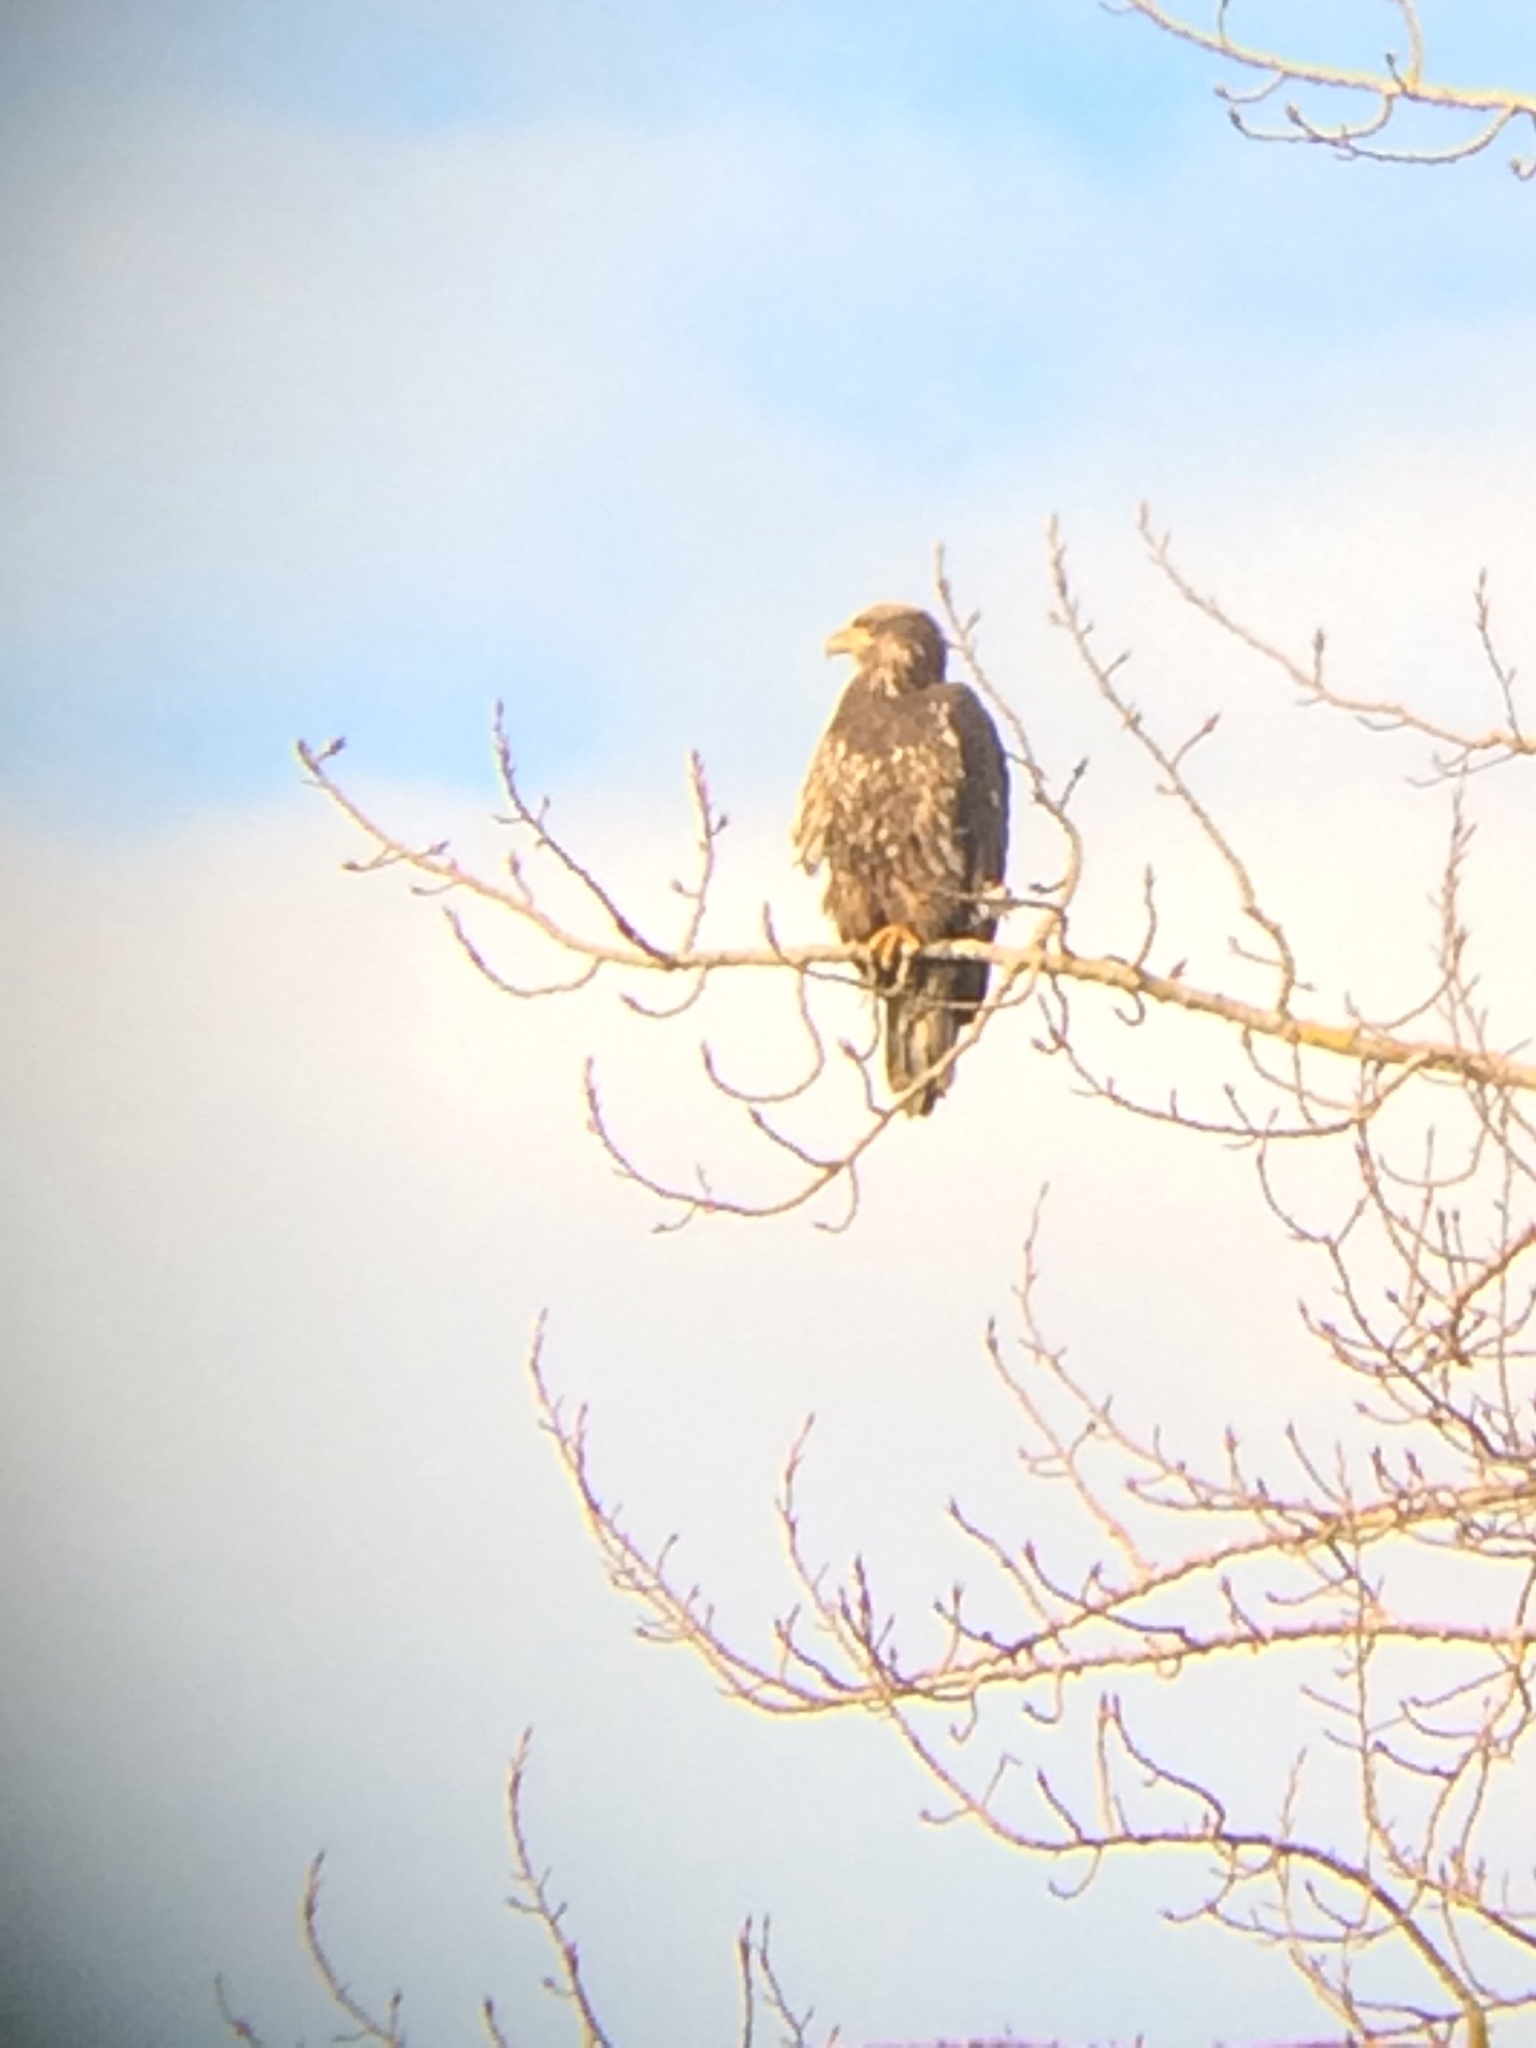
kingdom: Animalia
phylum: Chordata
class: Aves
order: Accipitriformes
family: Accipitridae
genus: Haliaeetus
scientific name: Haliaeetus leucocephalus
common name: Bald eagle
